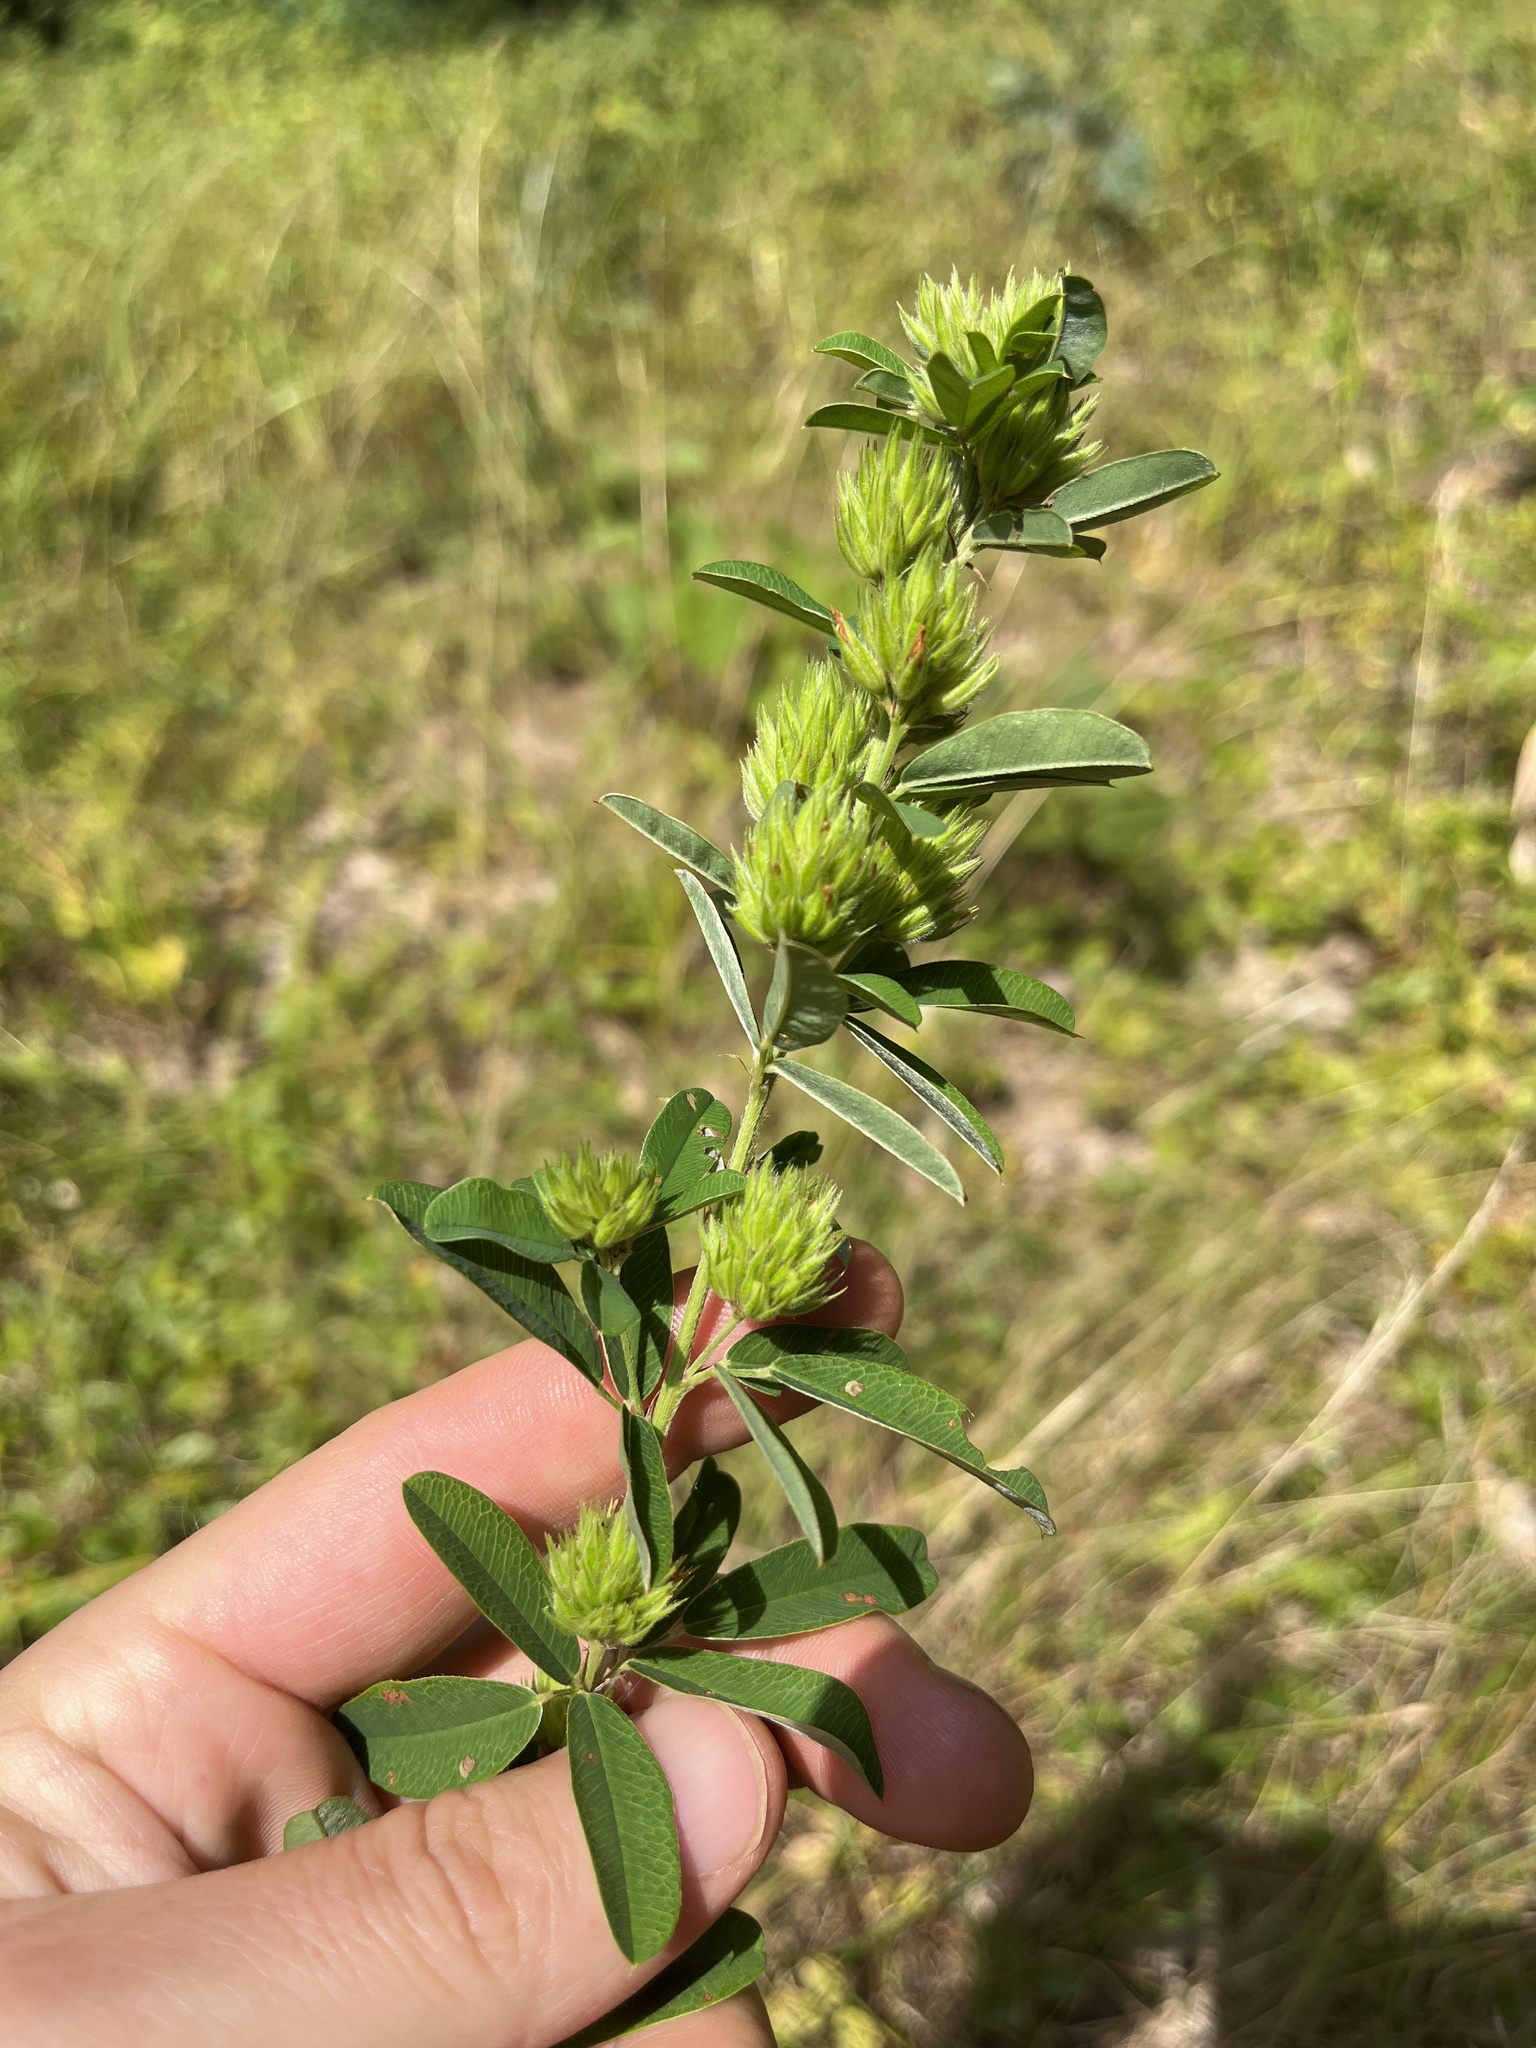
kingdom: Plantae
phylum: Tracheophyta
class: Magnoliopsida
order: Fabales
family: Fabaceae
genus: Lespedeza
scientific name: Lespedeza capitata
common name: Dusty clover
